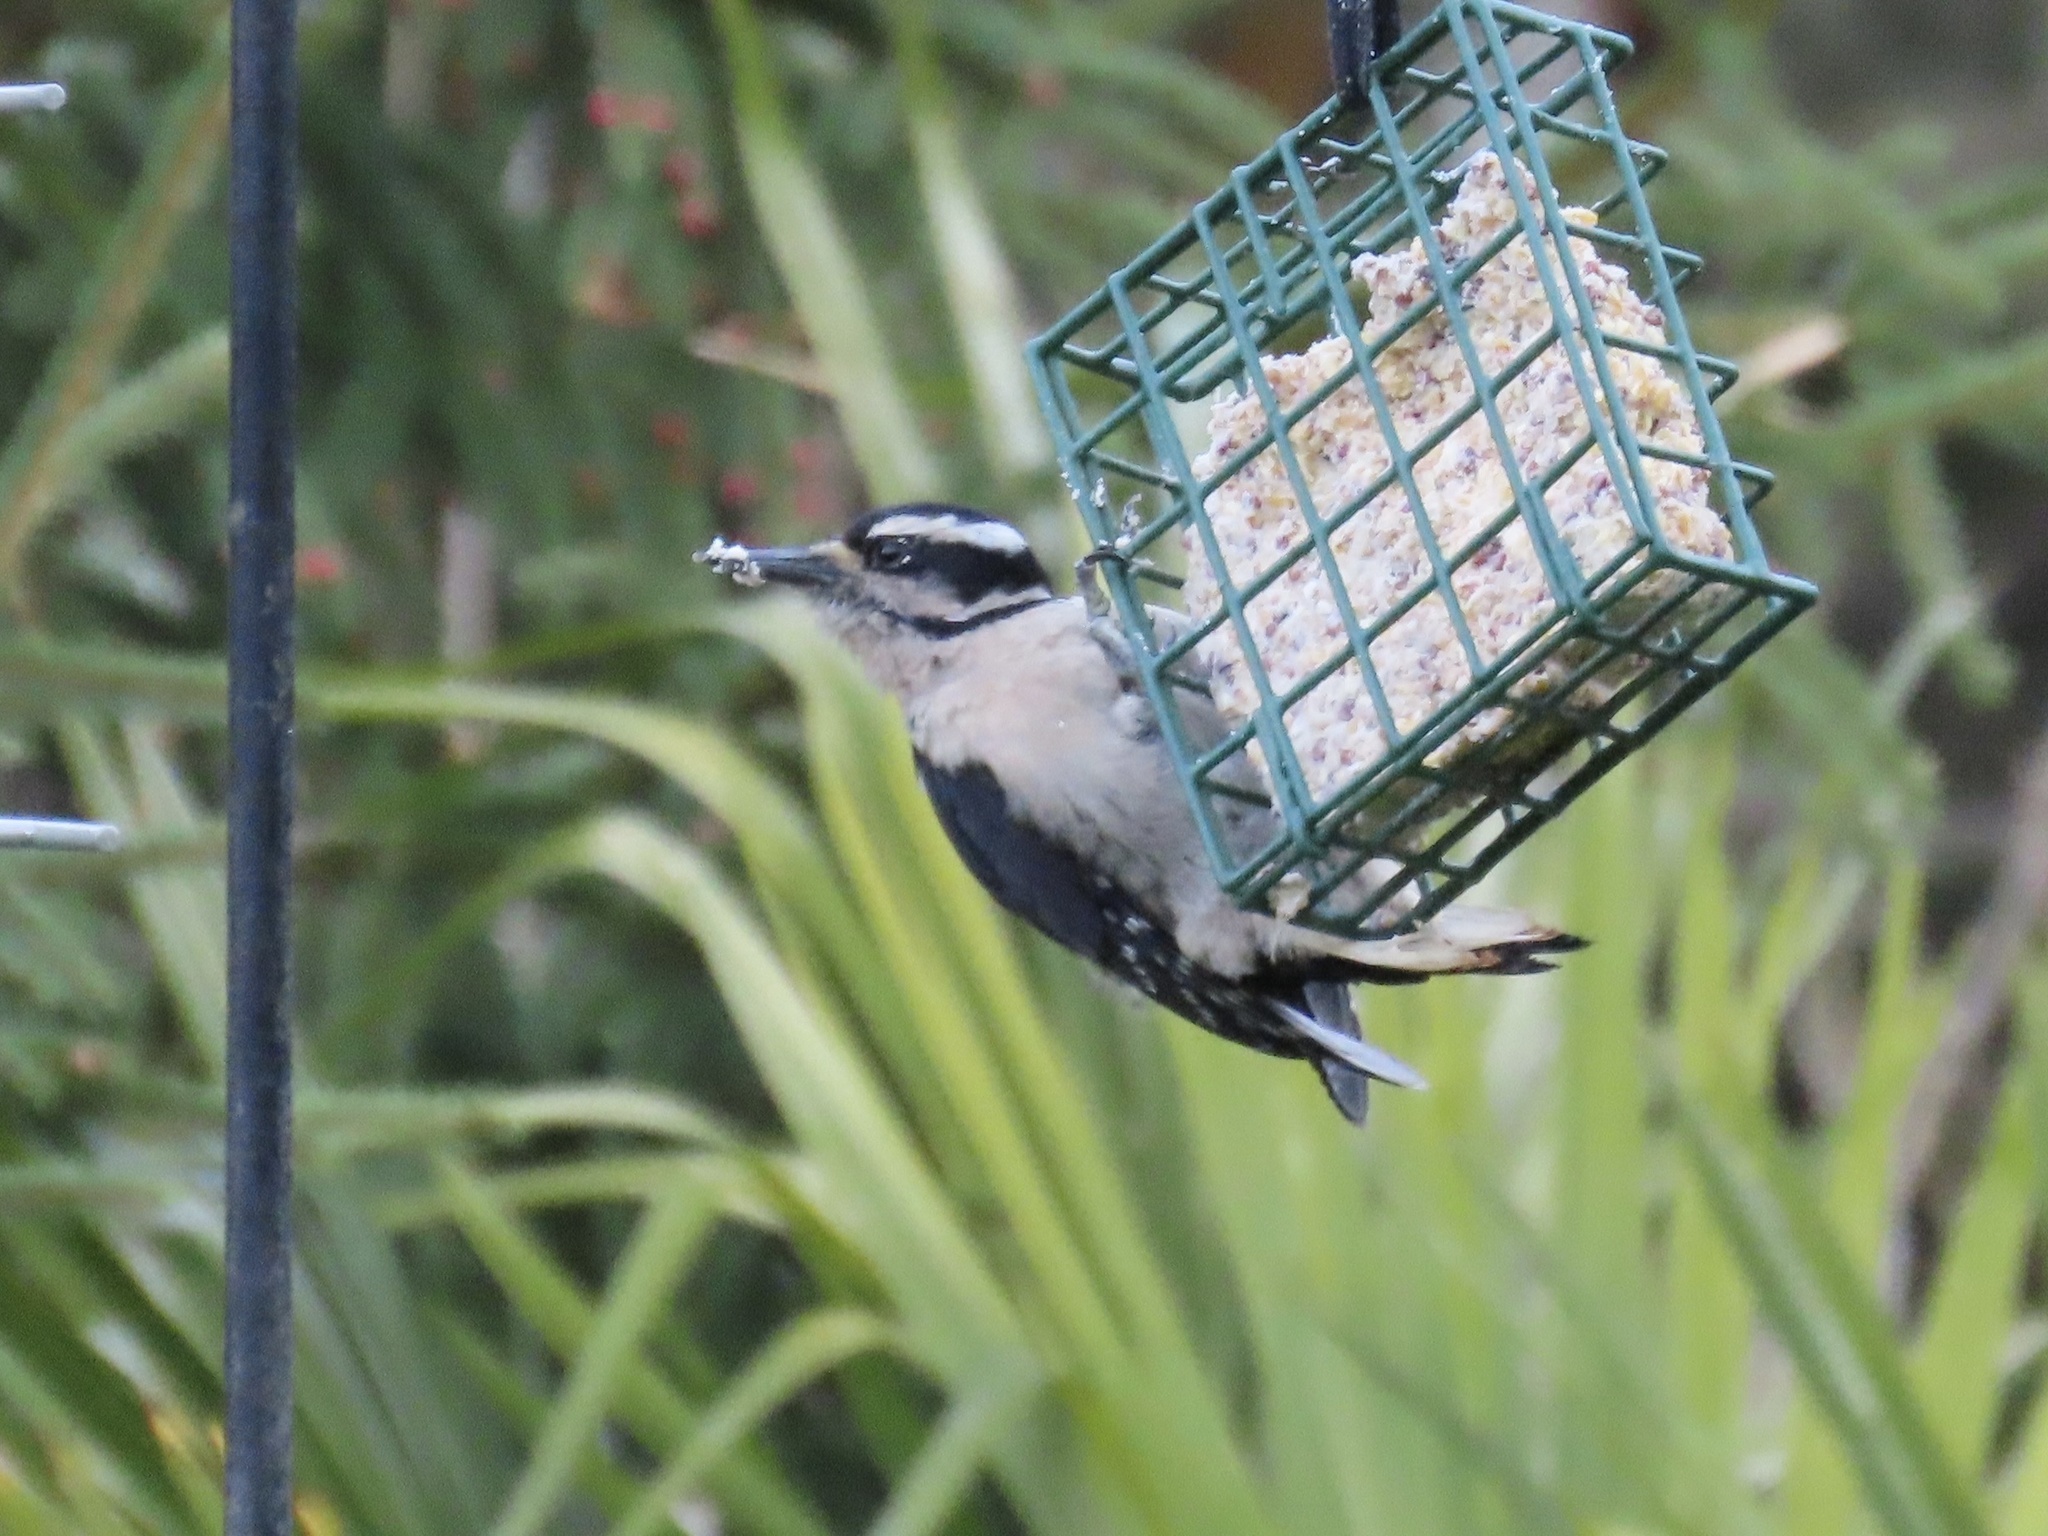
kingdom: Animalia
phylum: Chordata
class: Aves
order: Piciformes
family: Picidae
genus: Leuconotopicus
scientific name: Leuconotopicus villosus
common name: Hairy woodpecker
